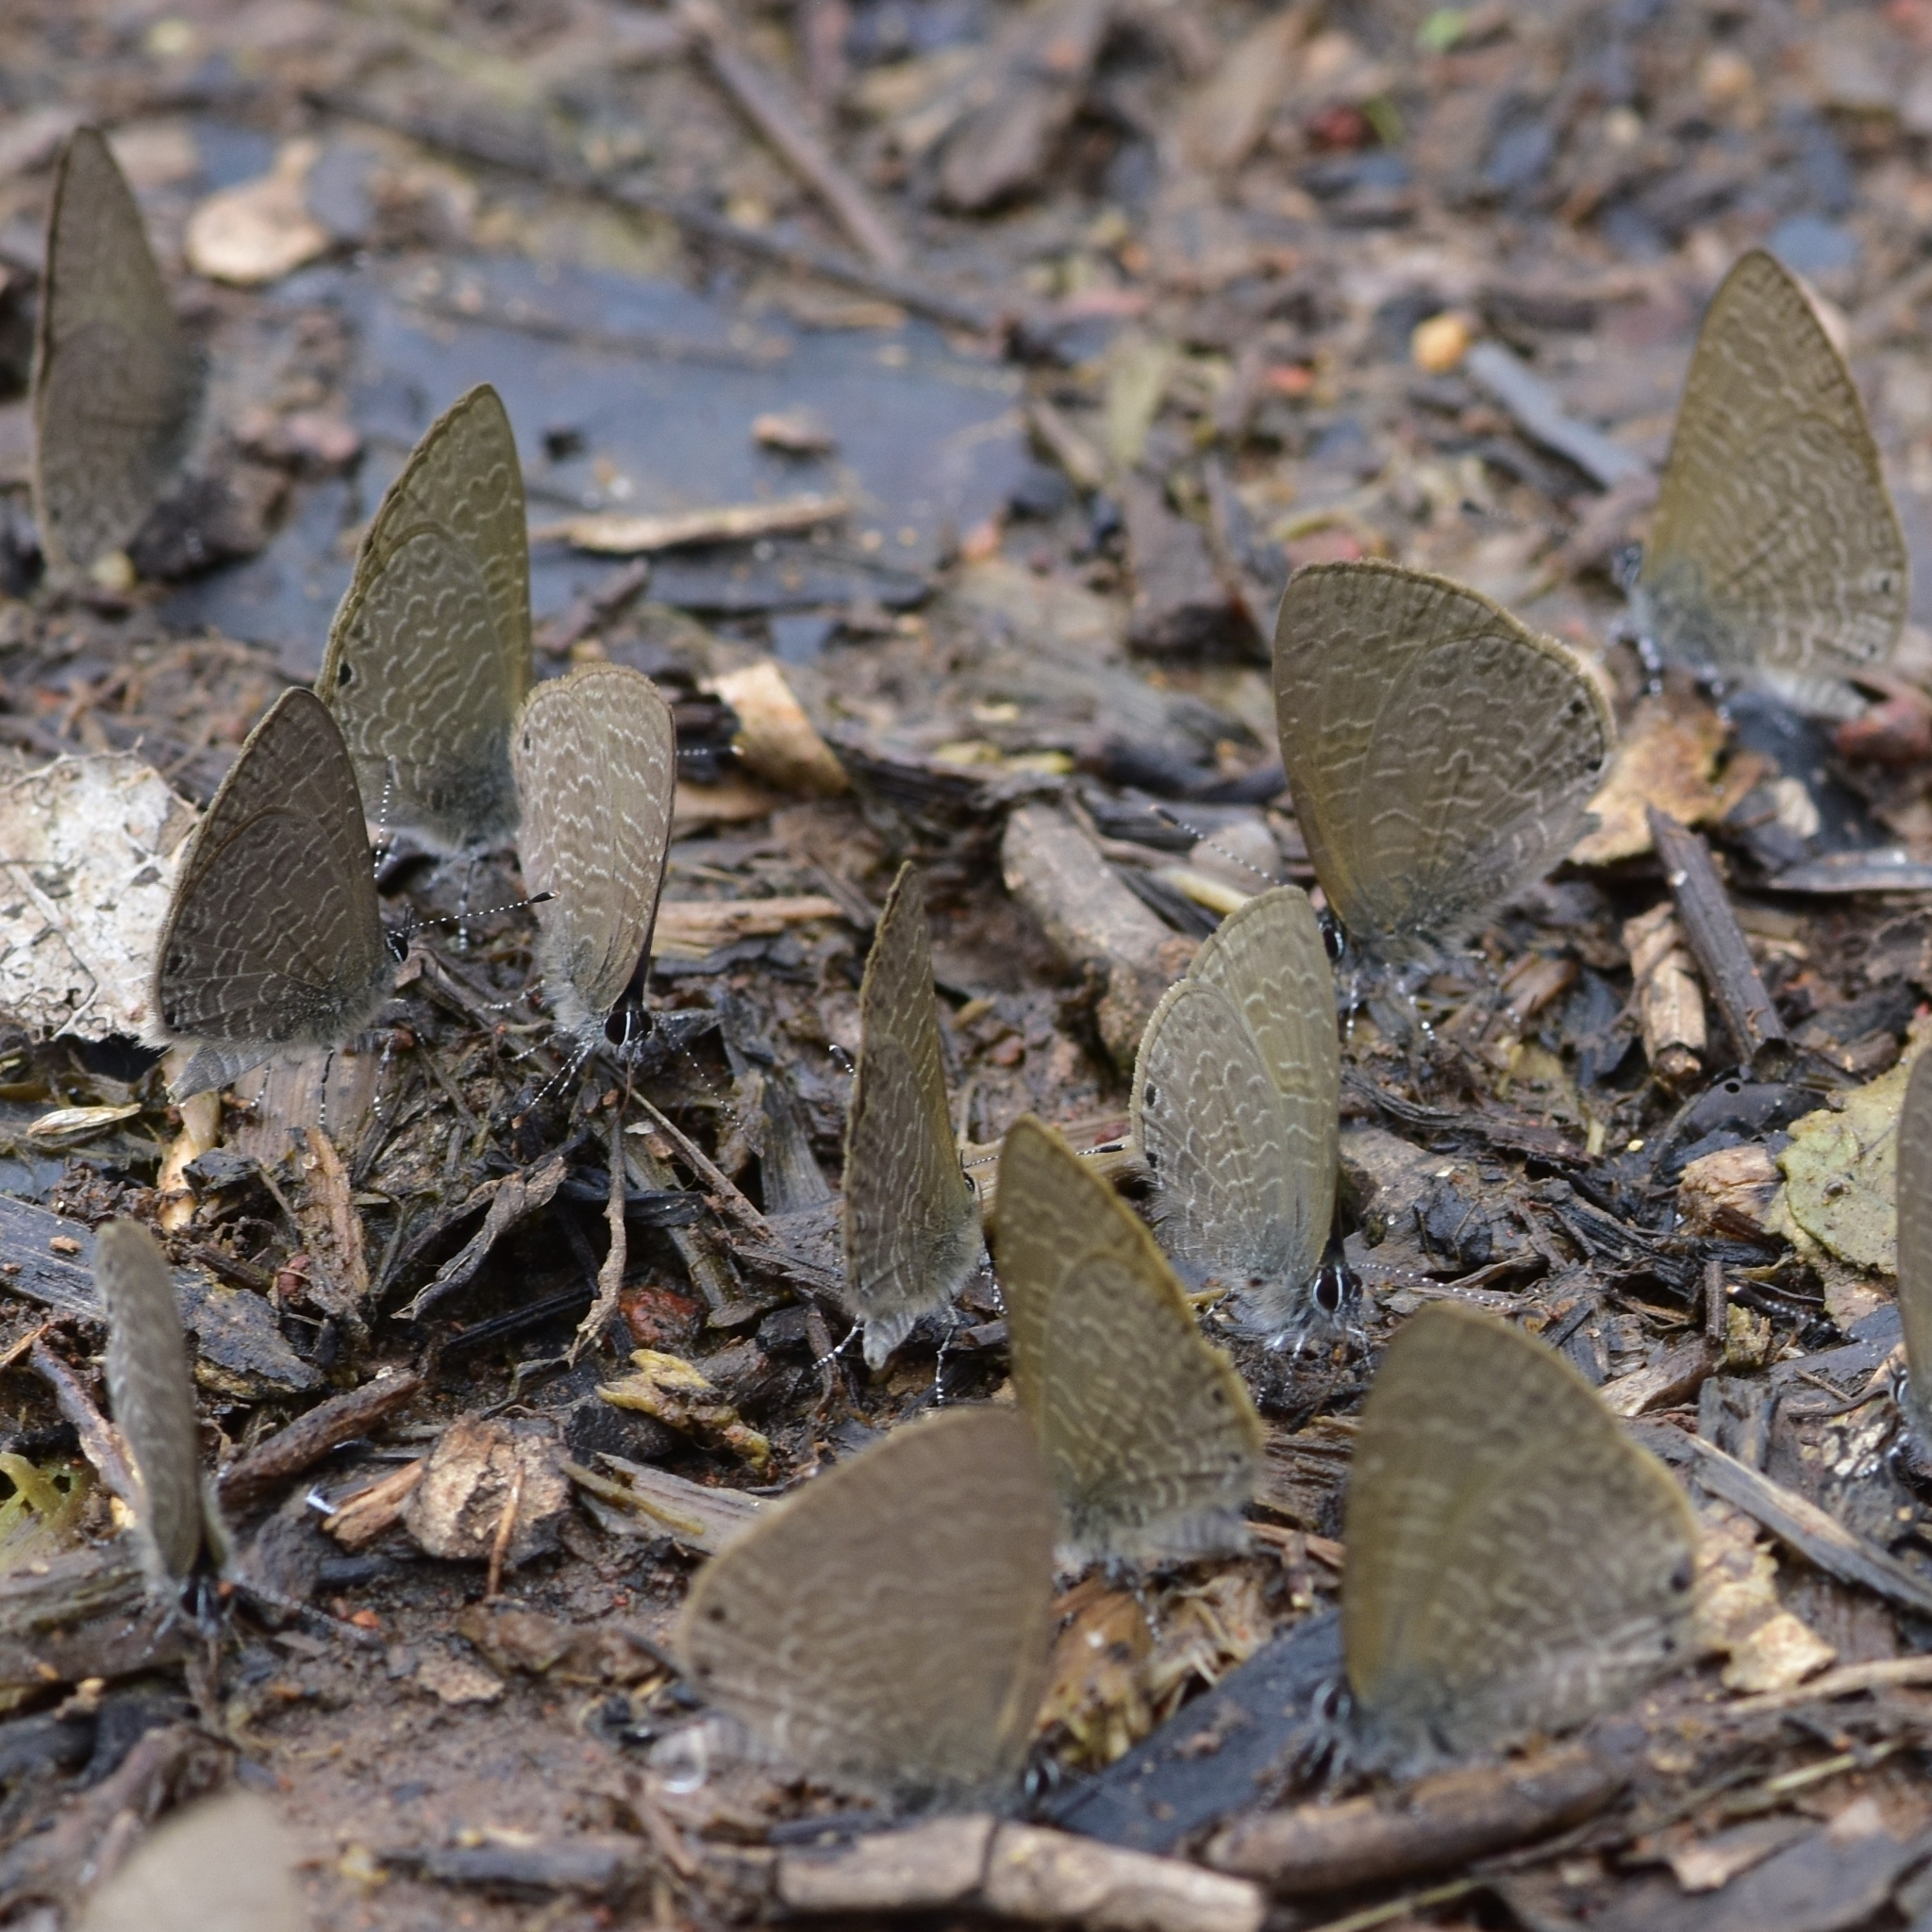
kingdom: Animalia
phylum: Arthropoda
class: Insecta
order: Lepidoptera
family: Lycaenidae
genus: Petrelaea
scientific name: Petrelaea dana
